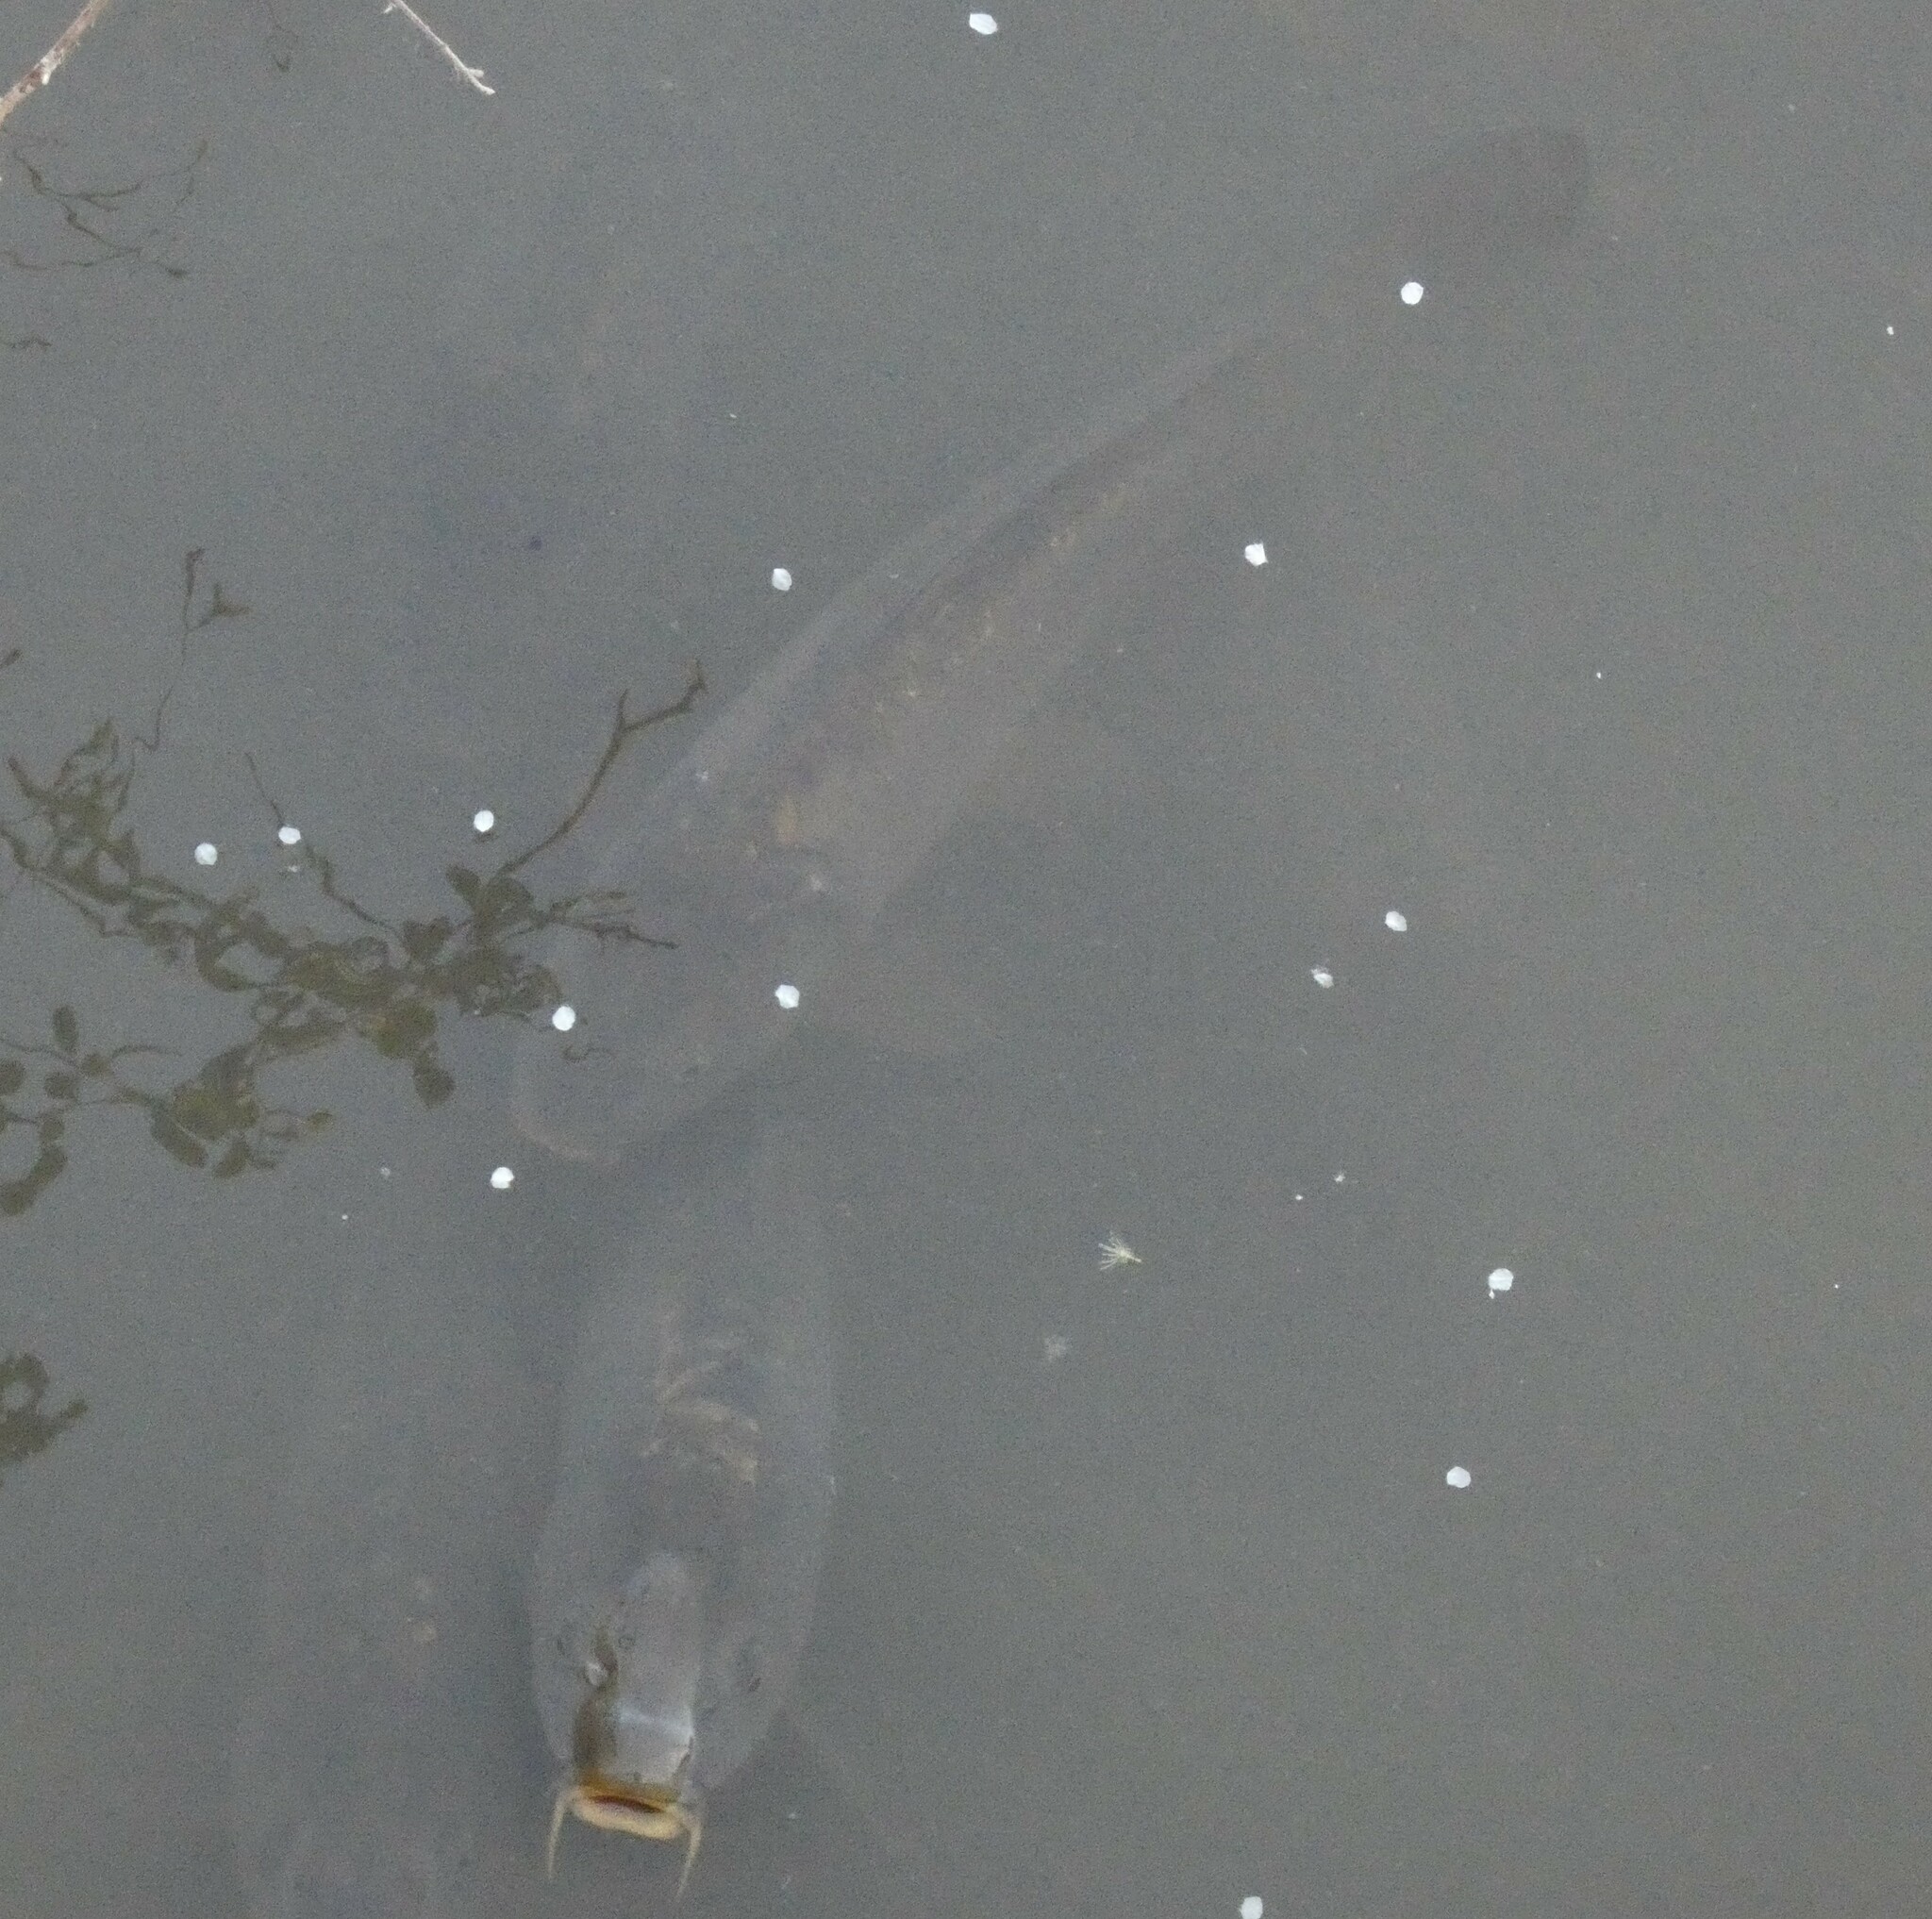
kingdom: Animalia
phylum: Chordata
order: Cypriniformes
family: Cyprinidae
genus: Cyprinus
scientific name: Cyprinus carpio
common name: Common carp
